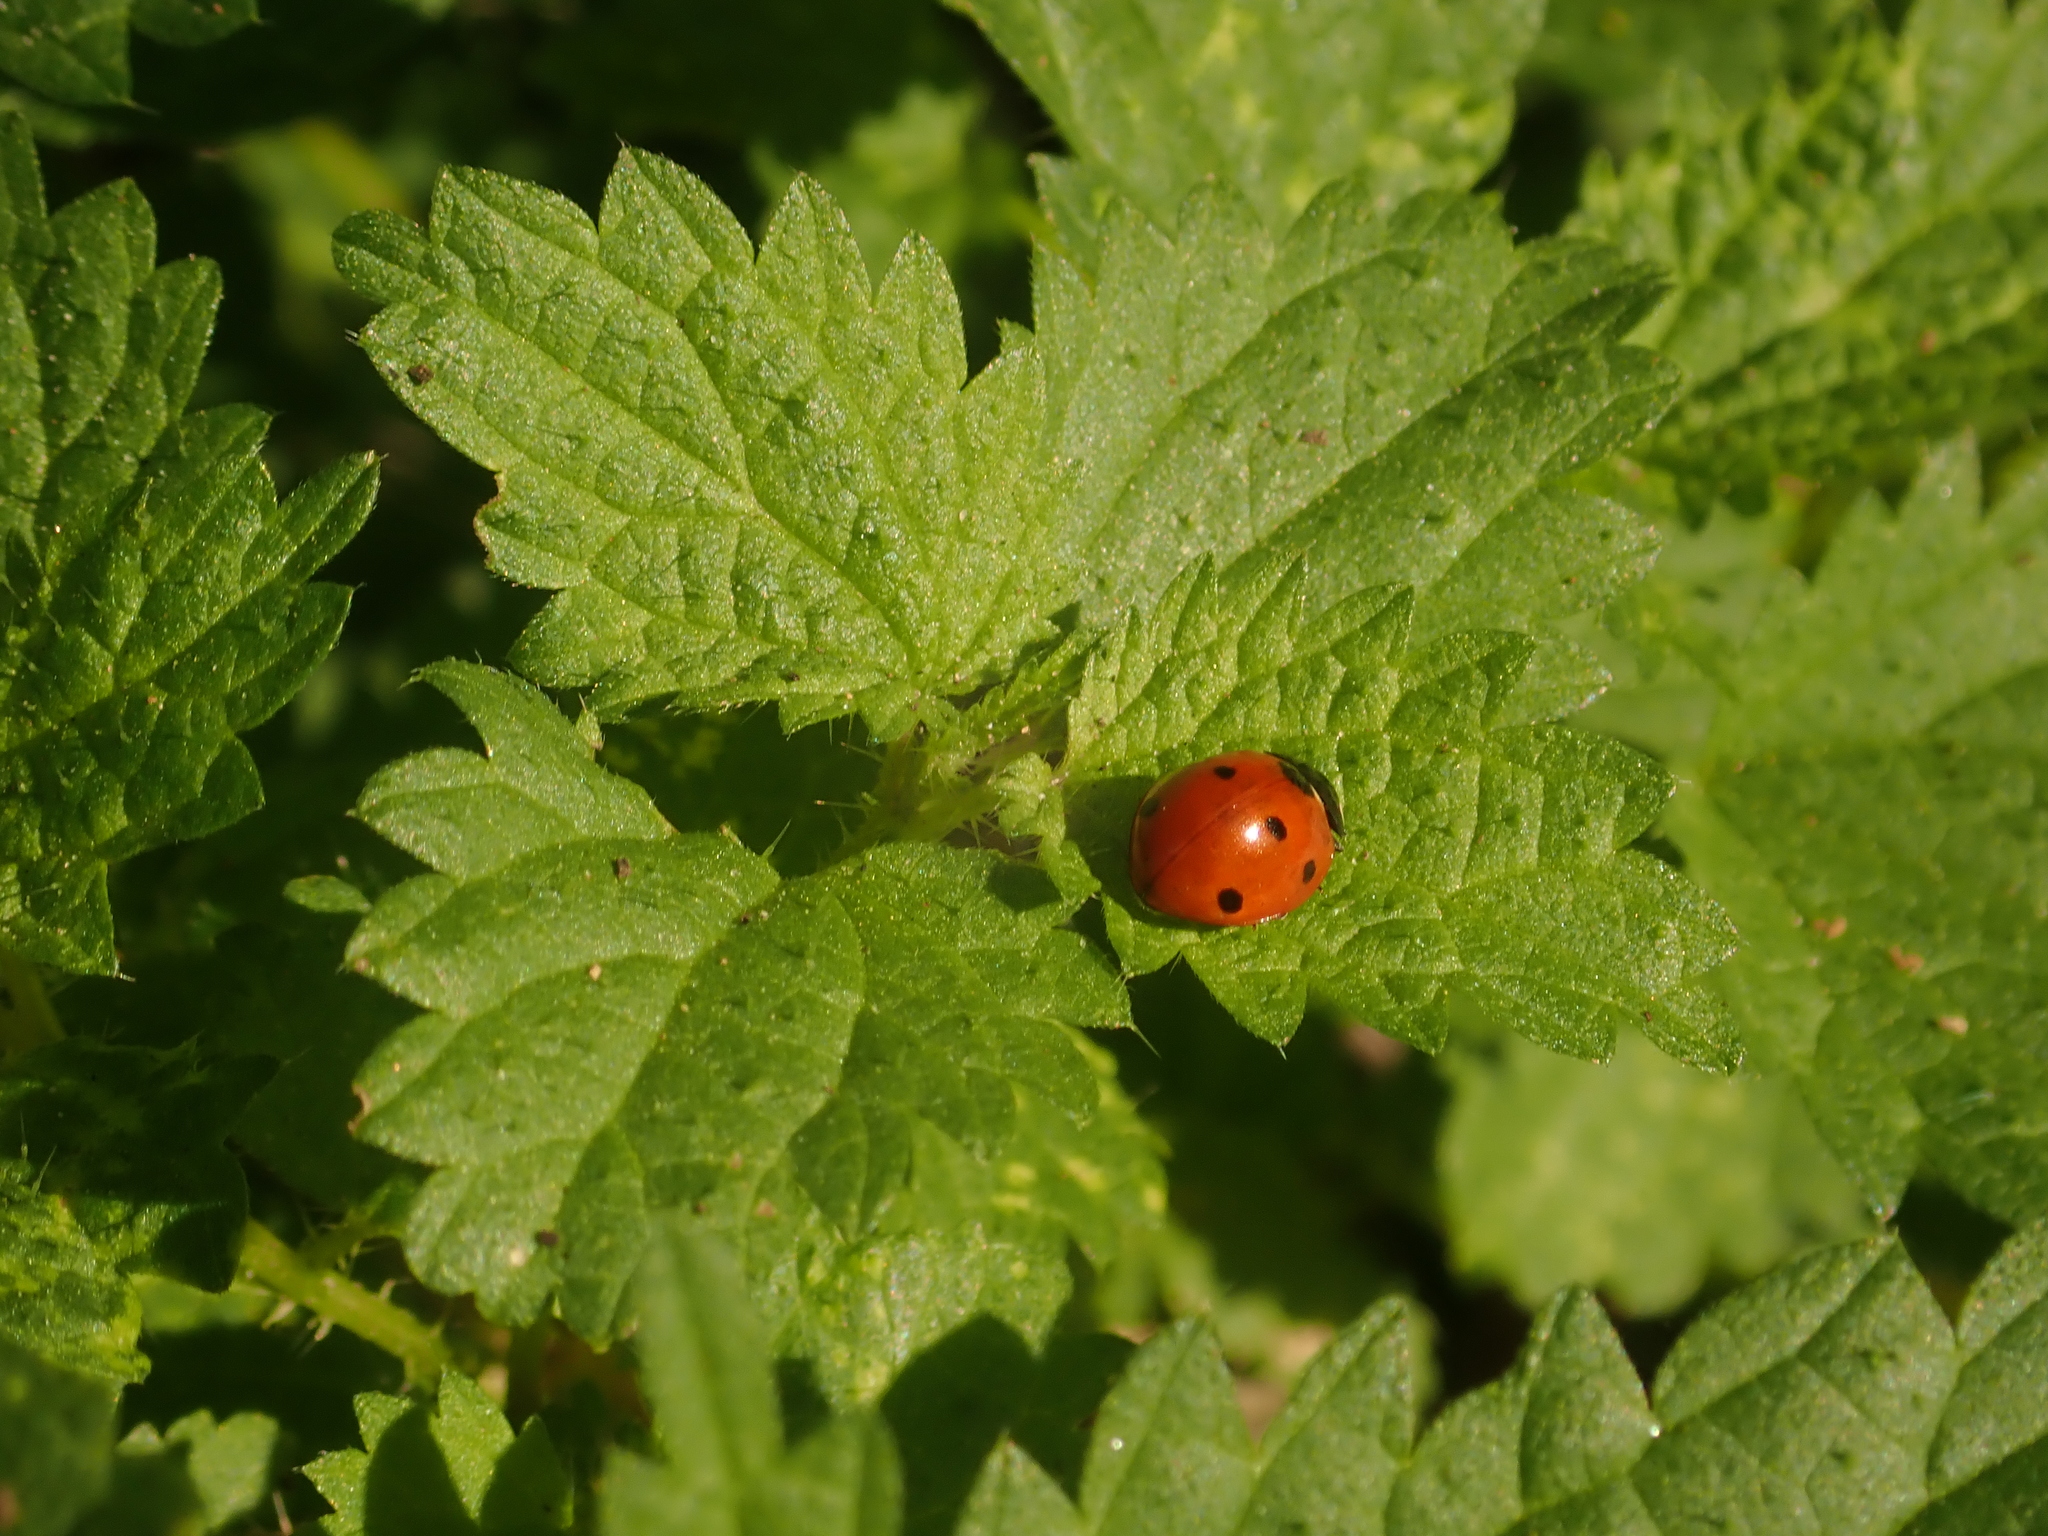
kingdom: Animalia
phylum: Arthropoda
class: Insecta
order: Coleoptera
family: Coccinellidae
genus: Coccinella
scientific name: Coccinella septempunctata
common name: Sevenspotted lady beetle
